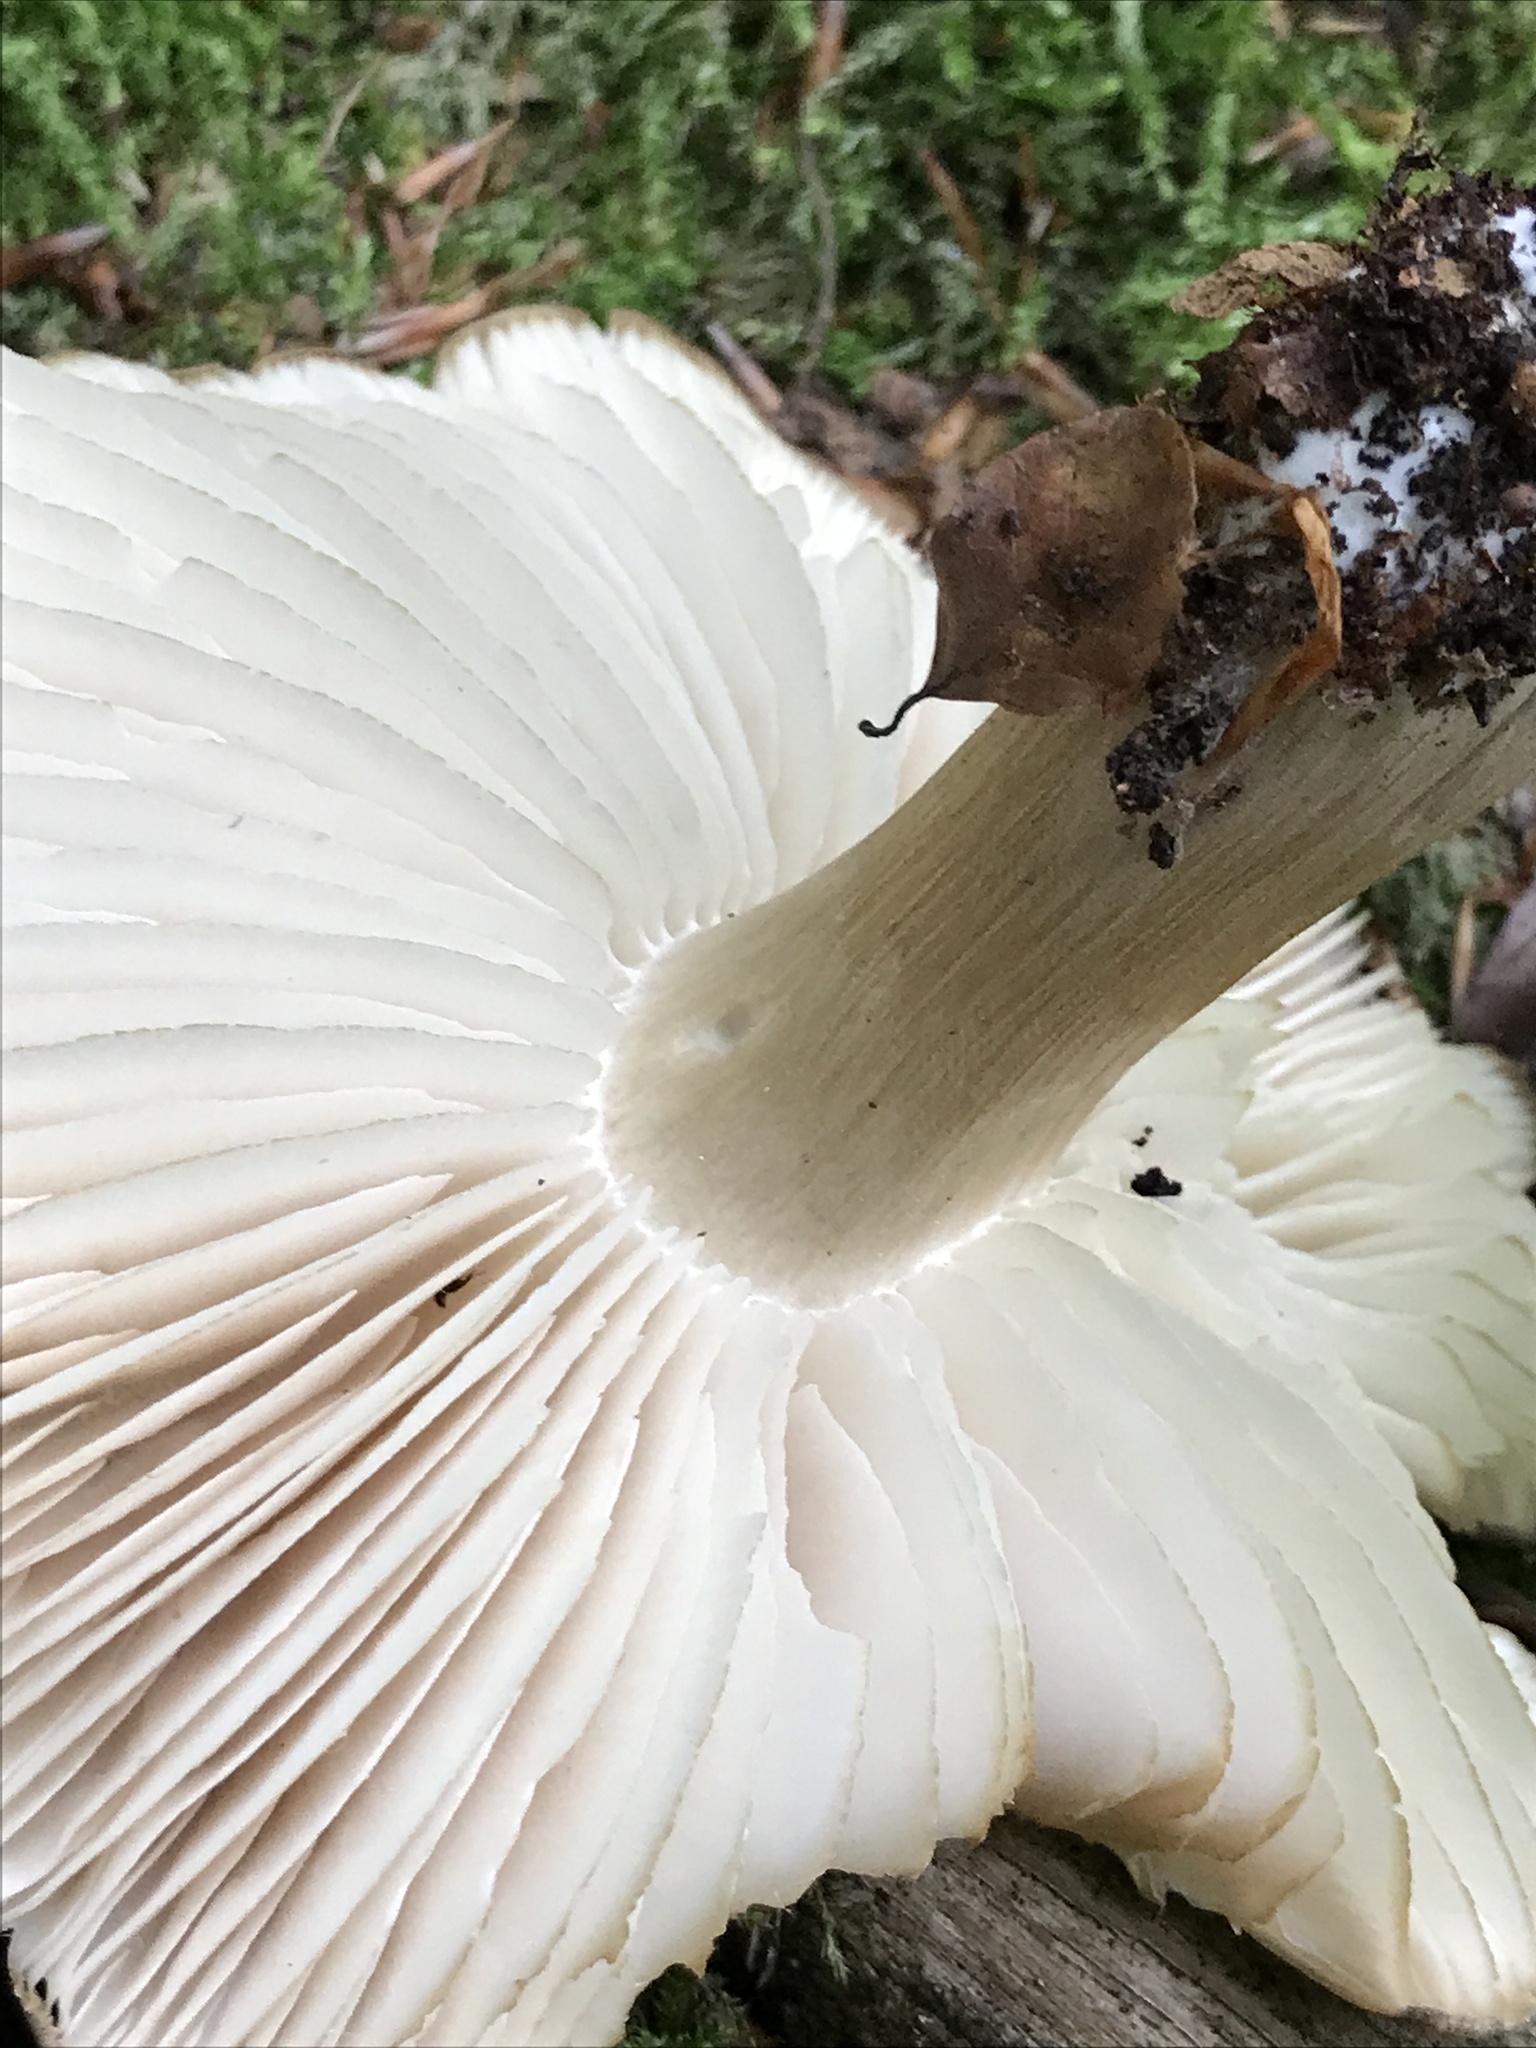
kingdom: Fungi
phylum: Basidiomycota
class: Agaricomycetes
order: Agaricales
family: Tricholomataceae
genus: Megacollybia
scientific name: Megacollybia platyphylla
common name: Whitelaced shank
